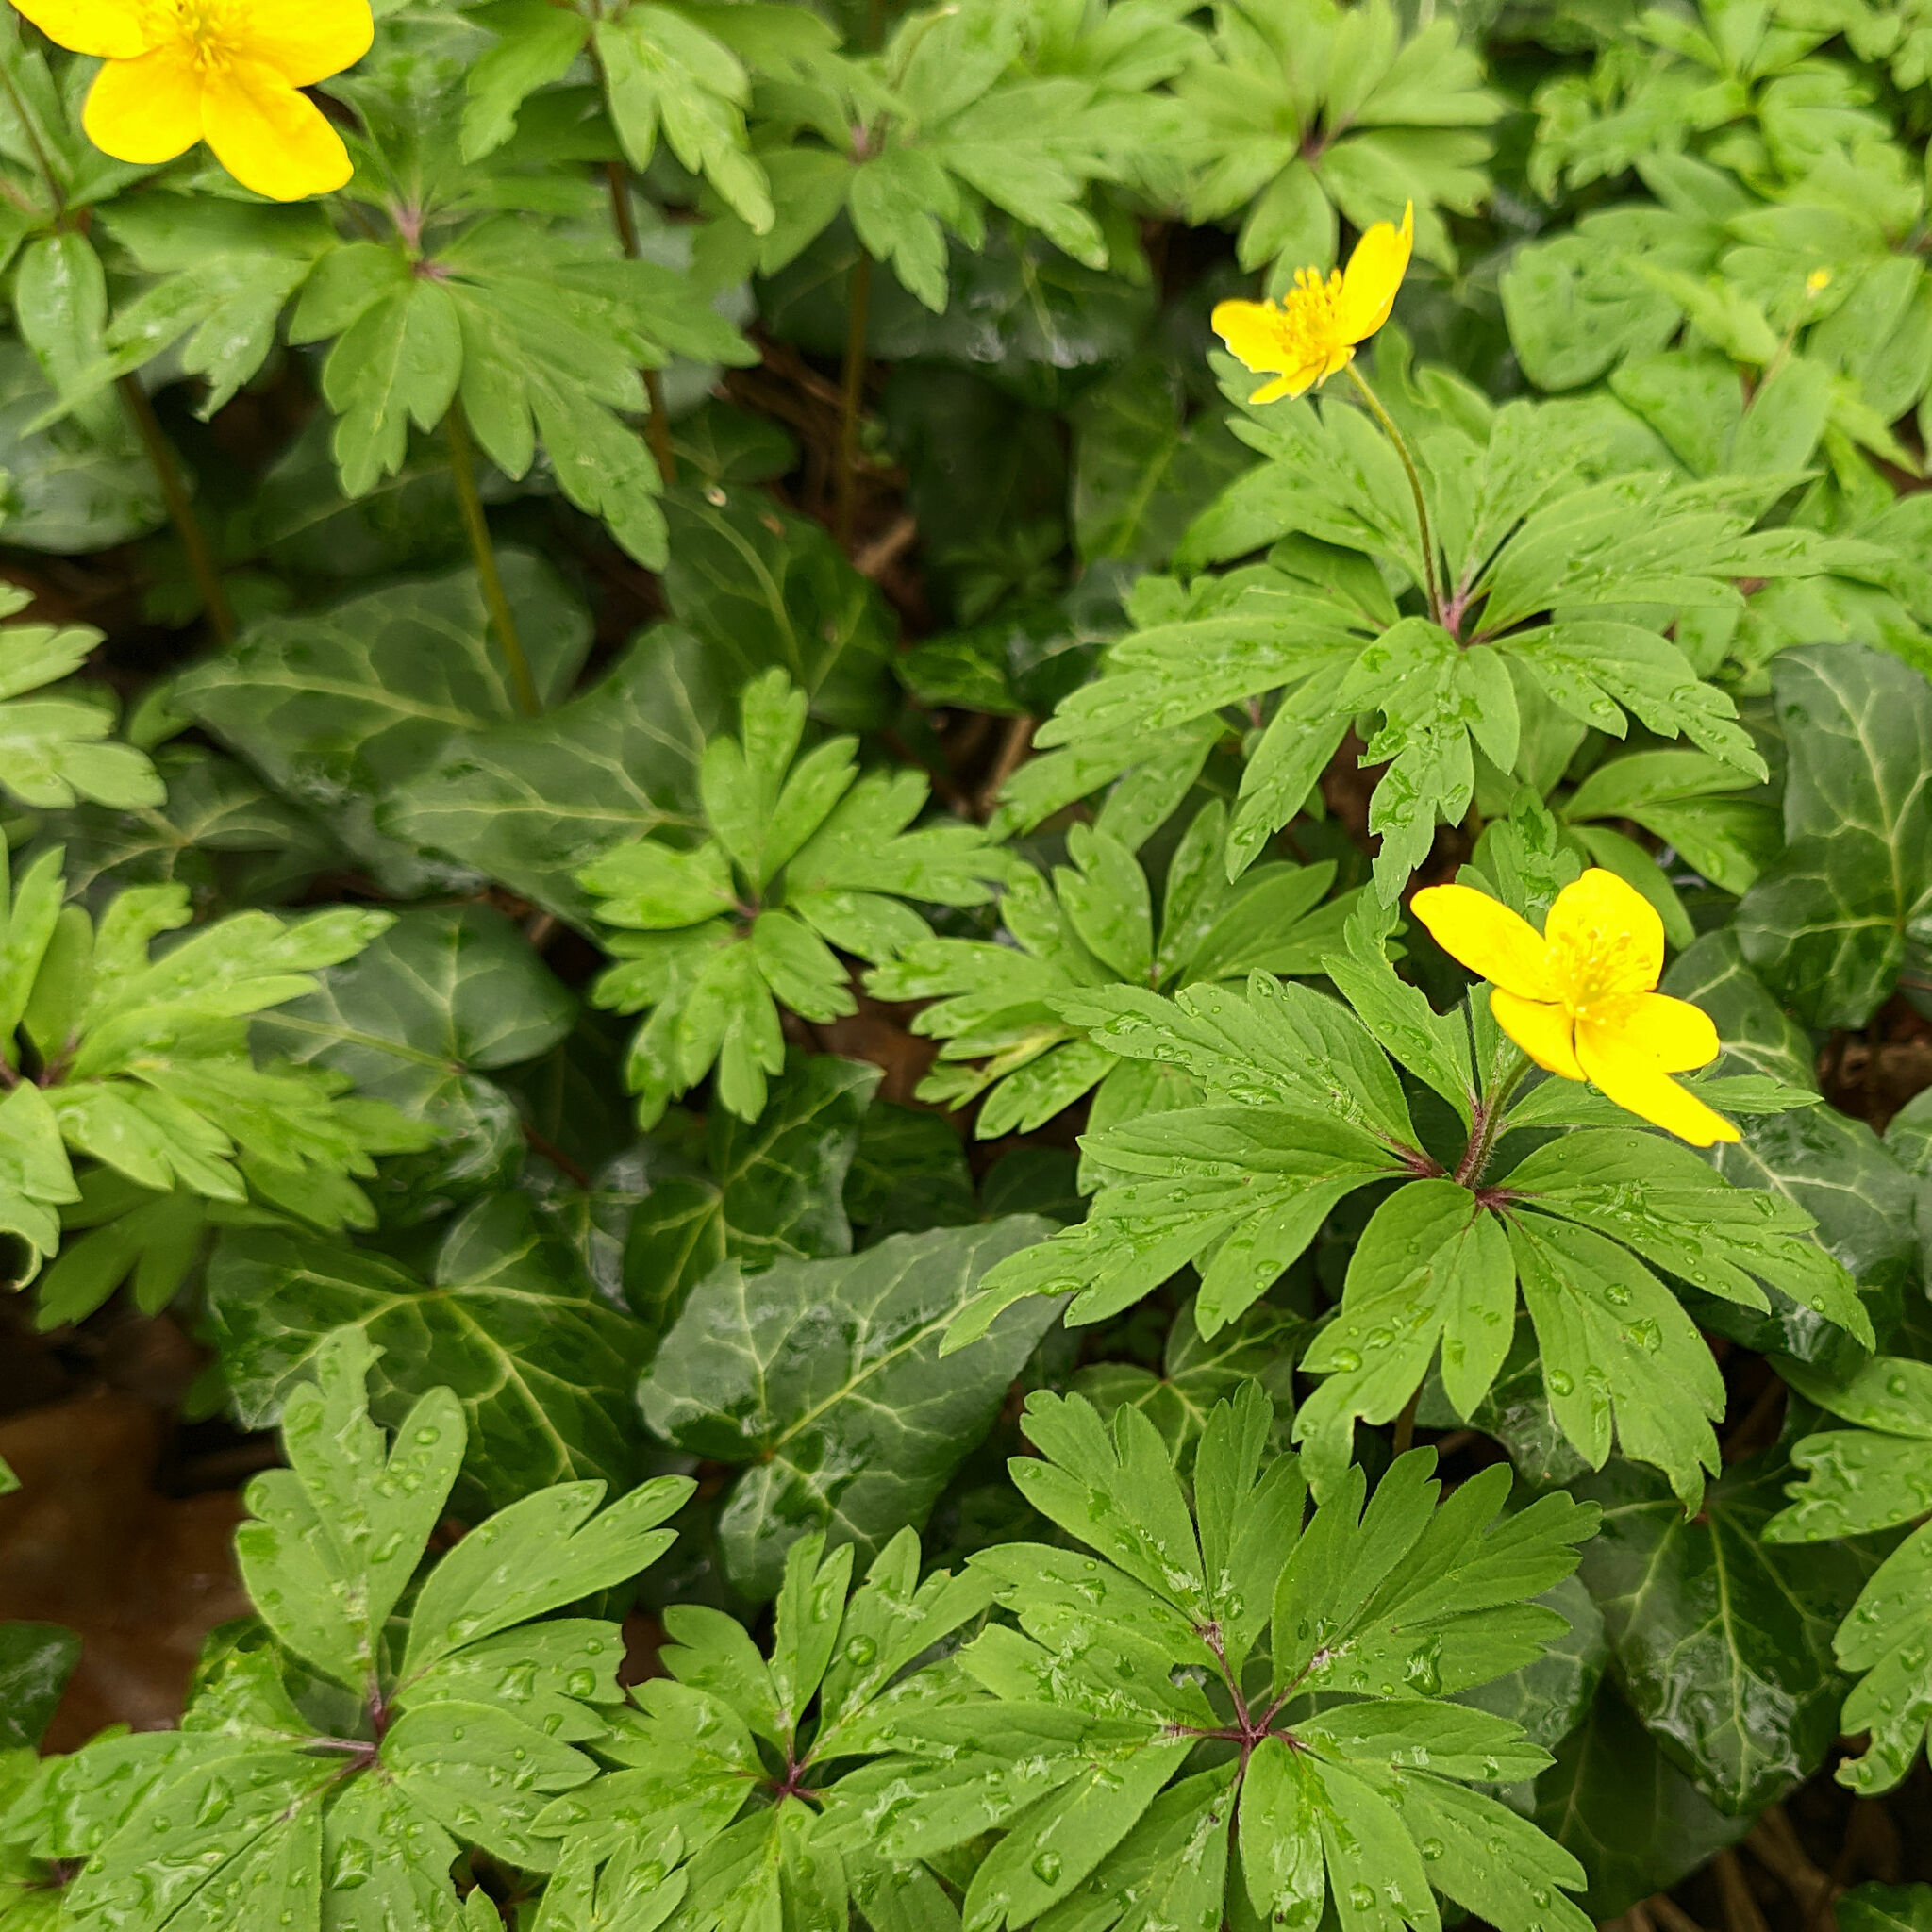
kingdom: Plantae
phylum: Tracheophyta
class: Magnoliopsida
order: Ranunculales
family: Ranunculaceae
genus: Anemone
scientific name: Anemone ranunculoides
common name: Yellow anemone
